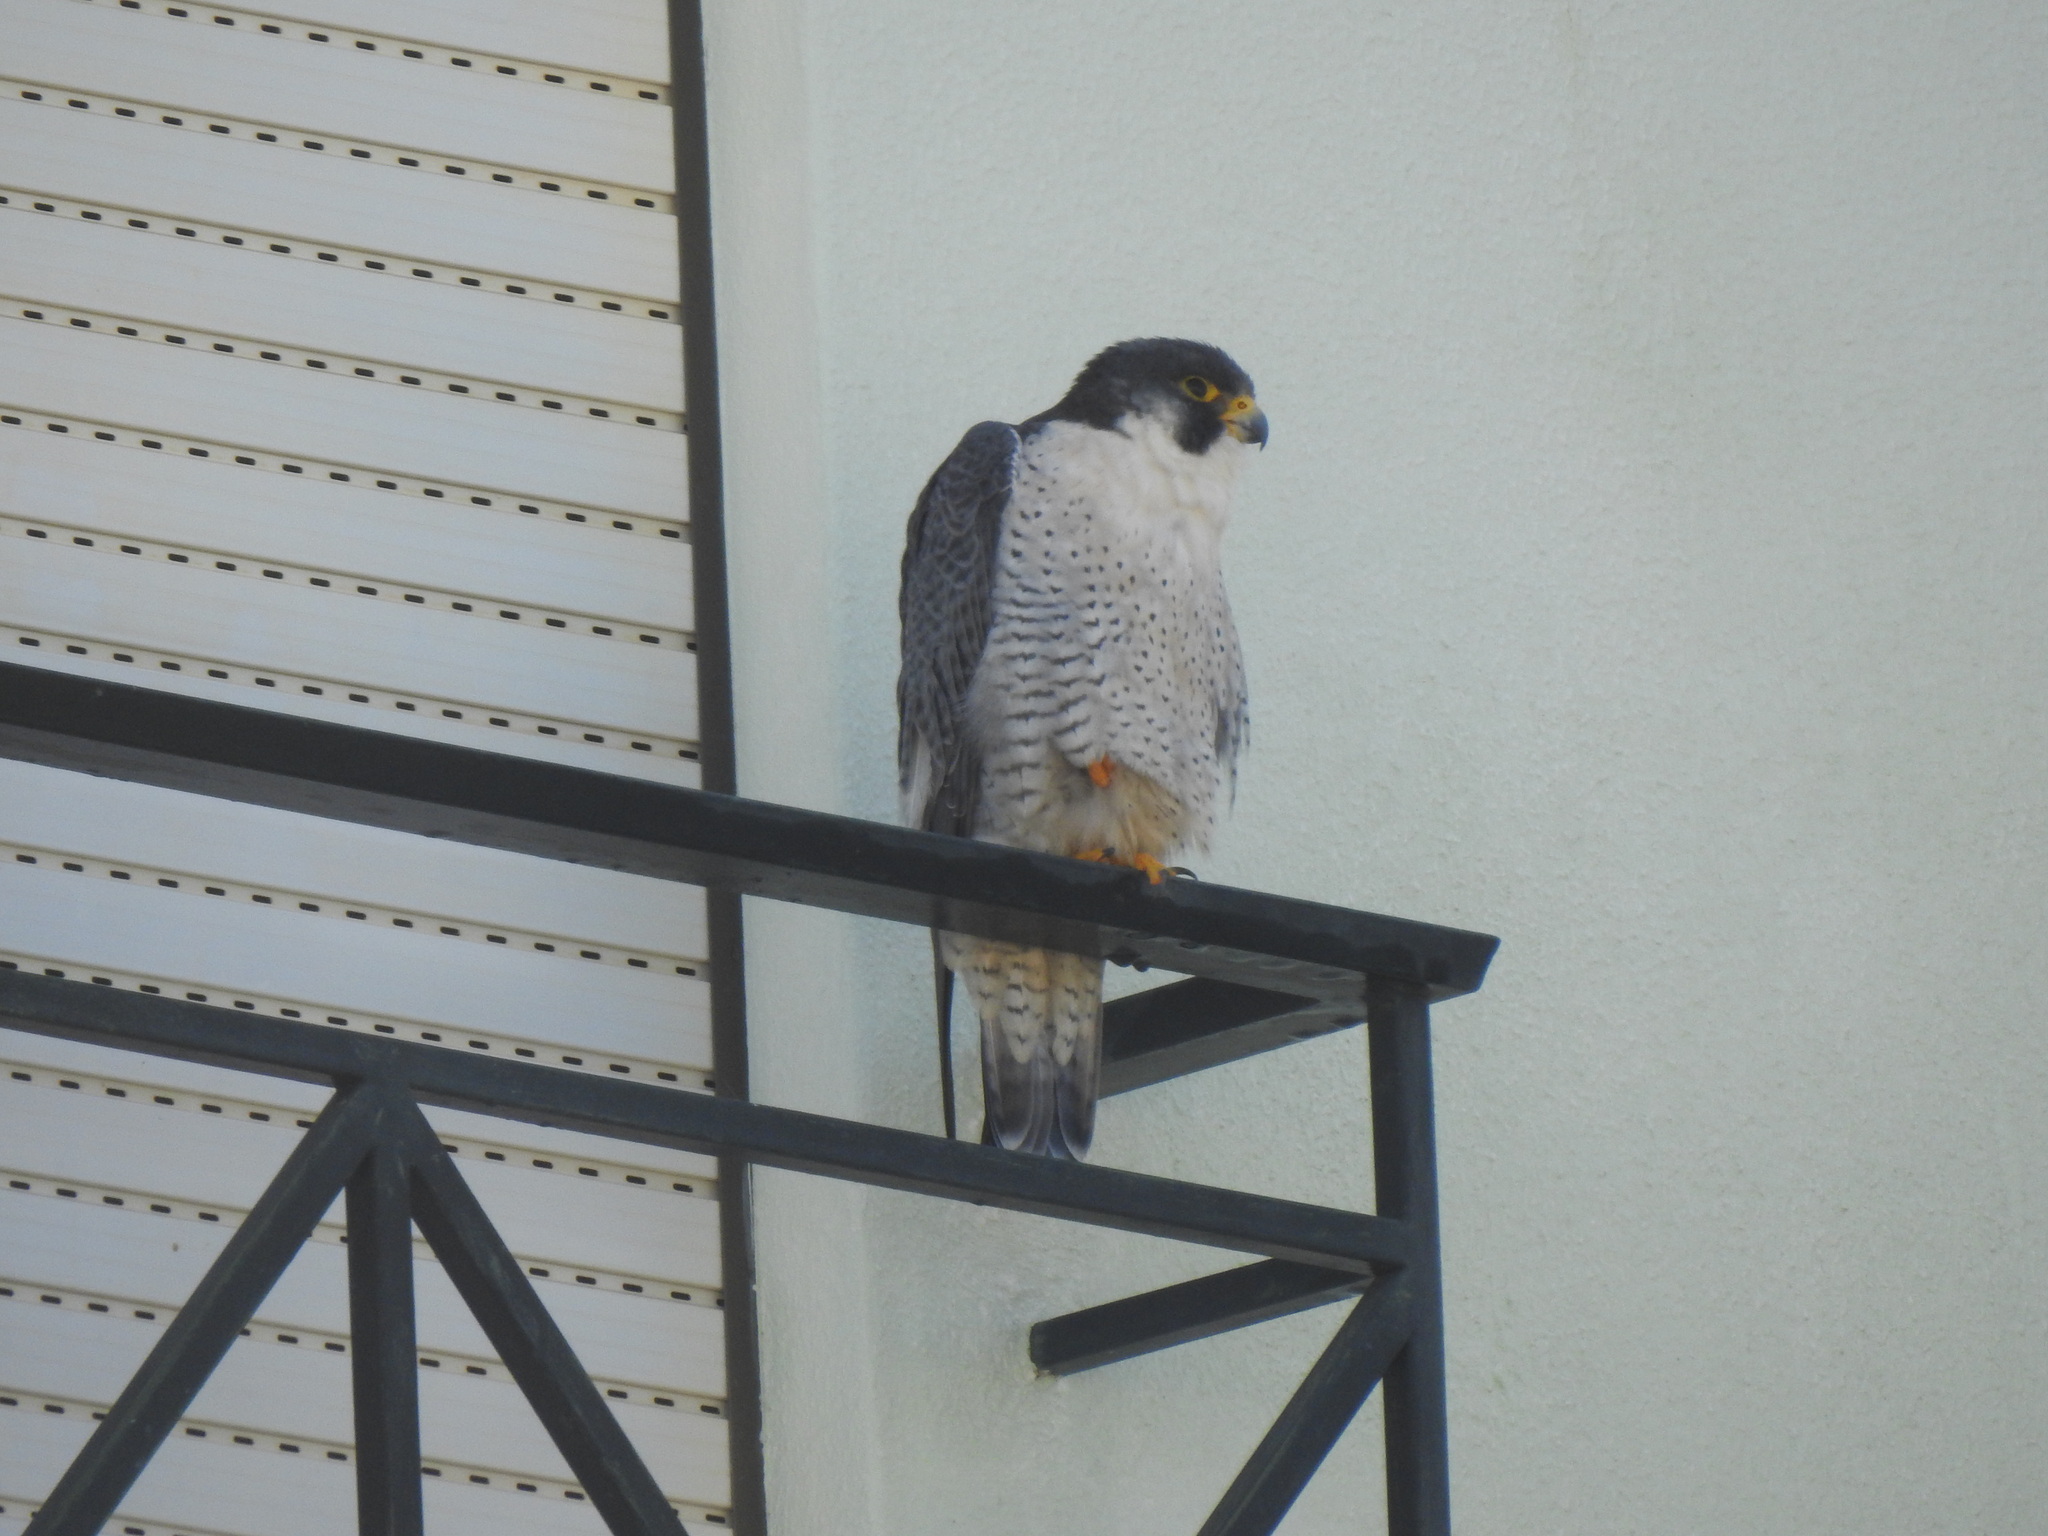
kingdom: Animalia
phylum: Chordata
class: Aves
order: Falconiformes
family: Falconidae
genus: Falco
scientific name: Falco peregrinus
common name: Peregrine falcon
